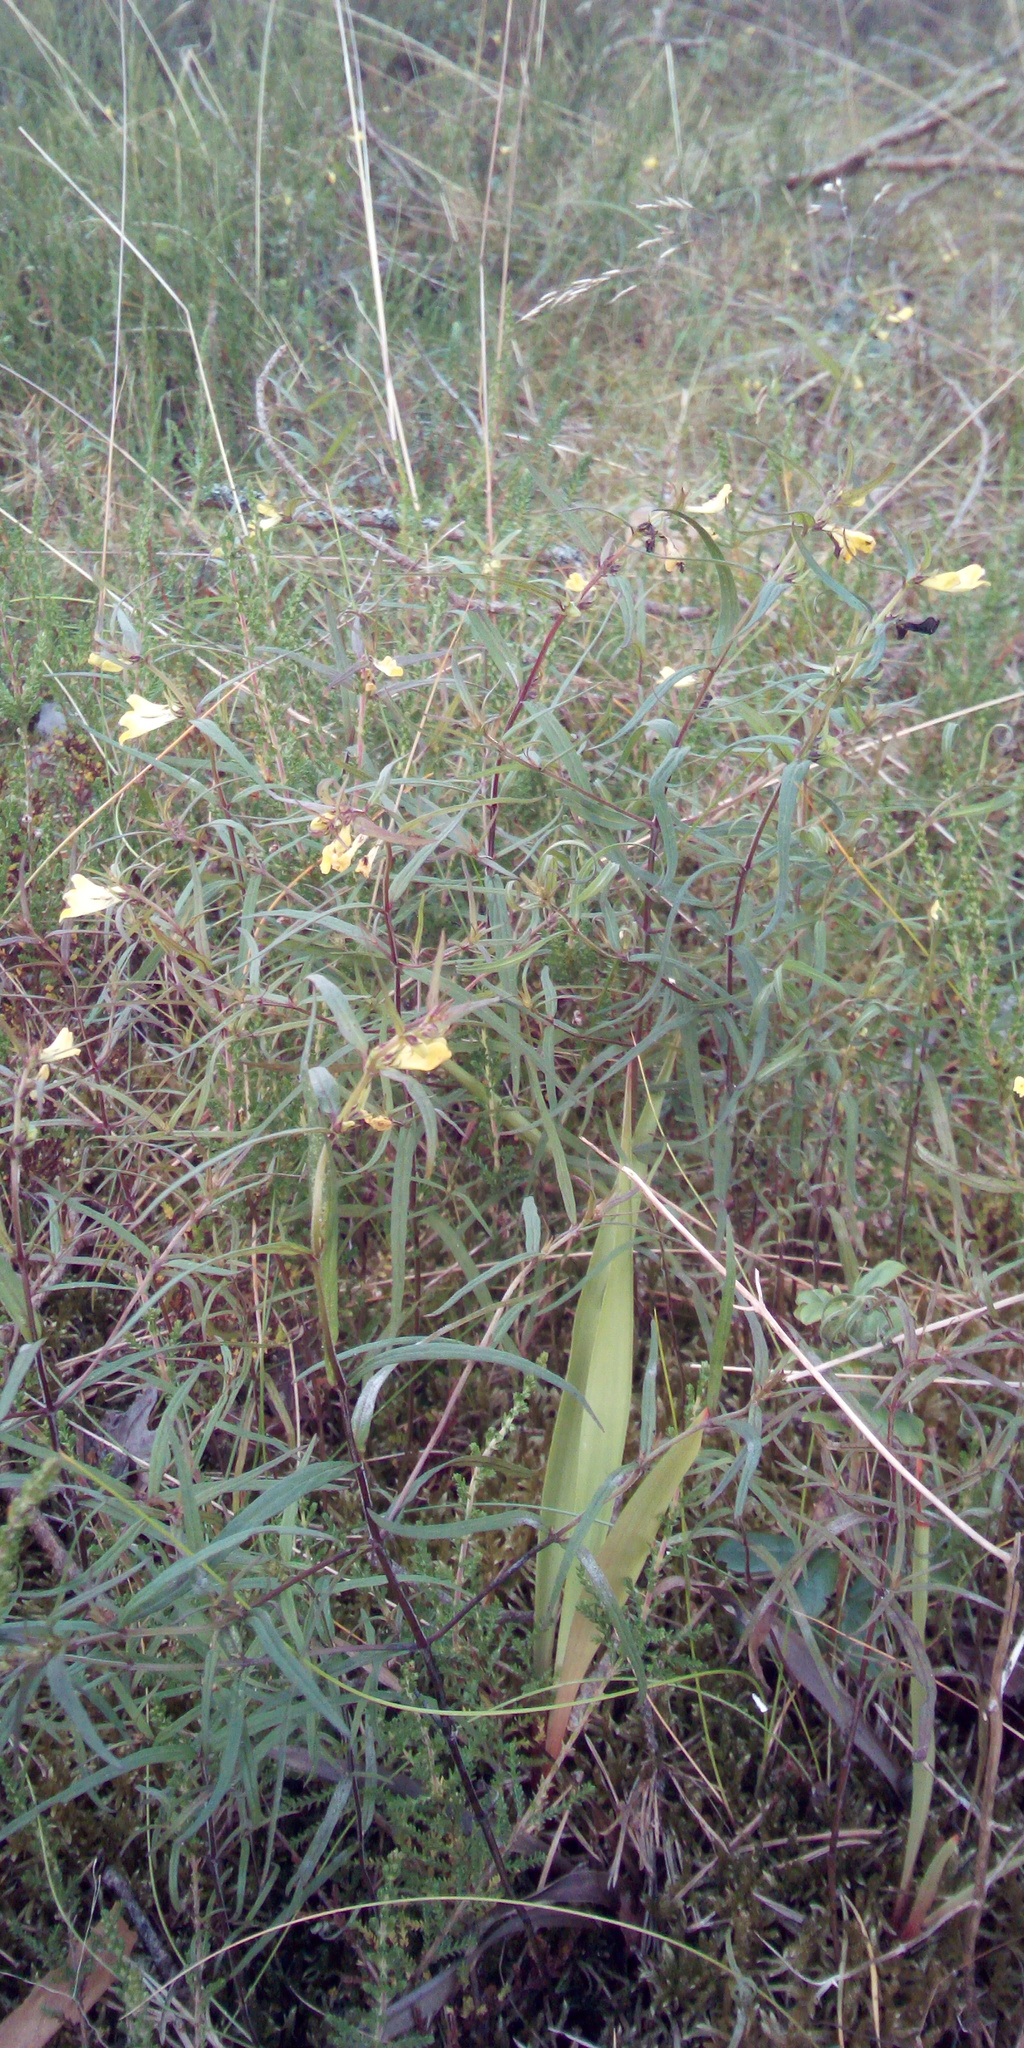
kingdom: Plantae
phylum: Tracheophyta
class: Magnoliopsida
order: Lamiales
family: Orobanchaceae
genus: Melampyrum
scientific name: Melampyrum pratense
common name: Common cow-wheat
